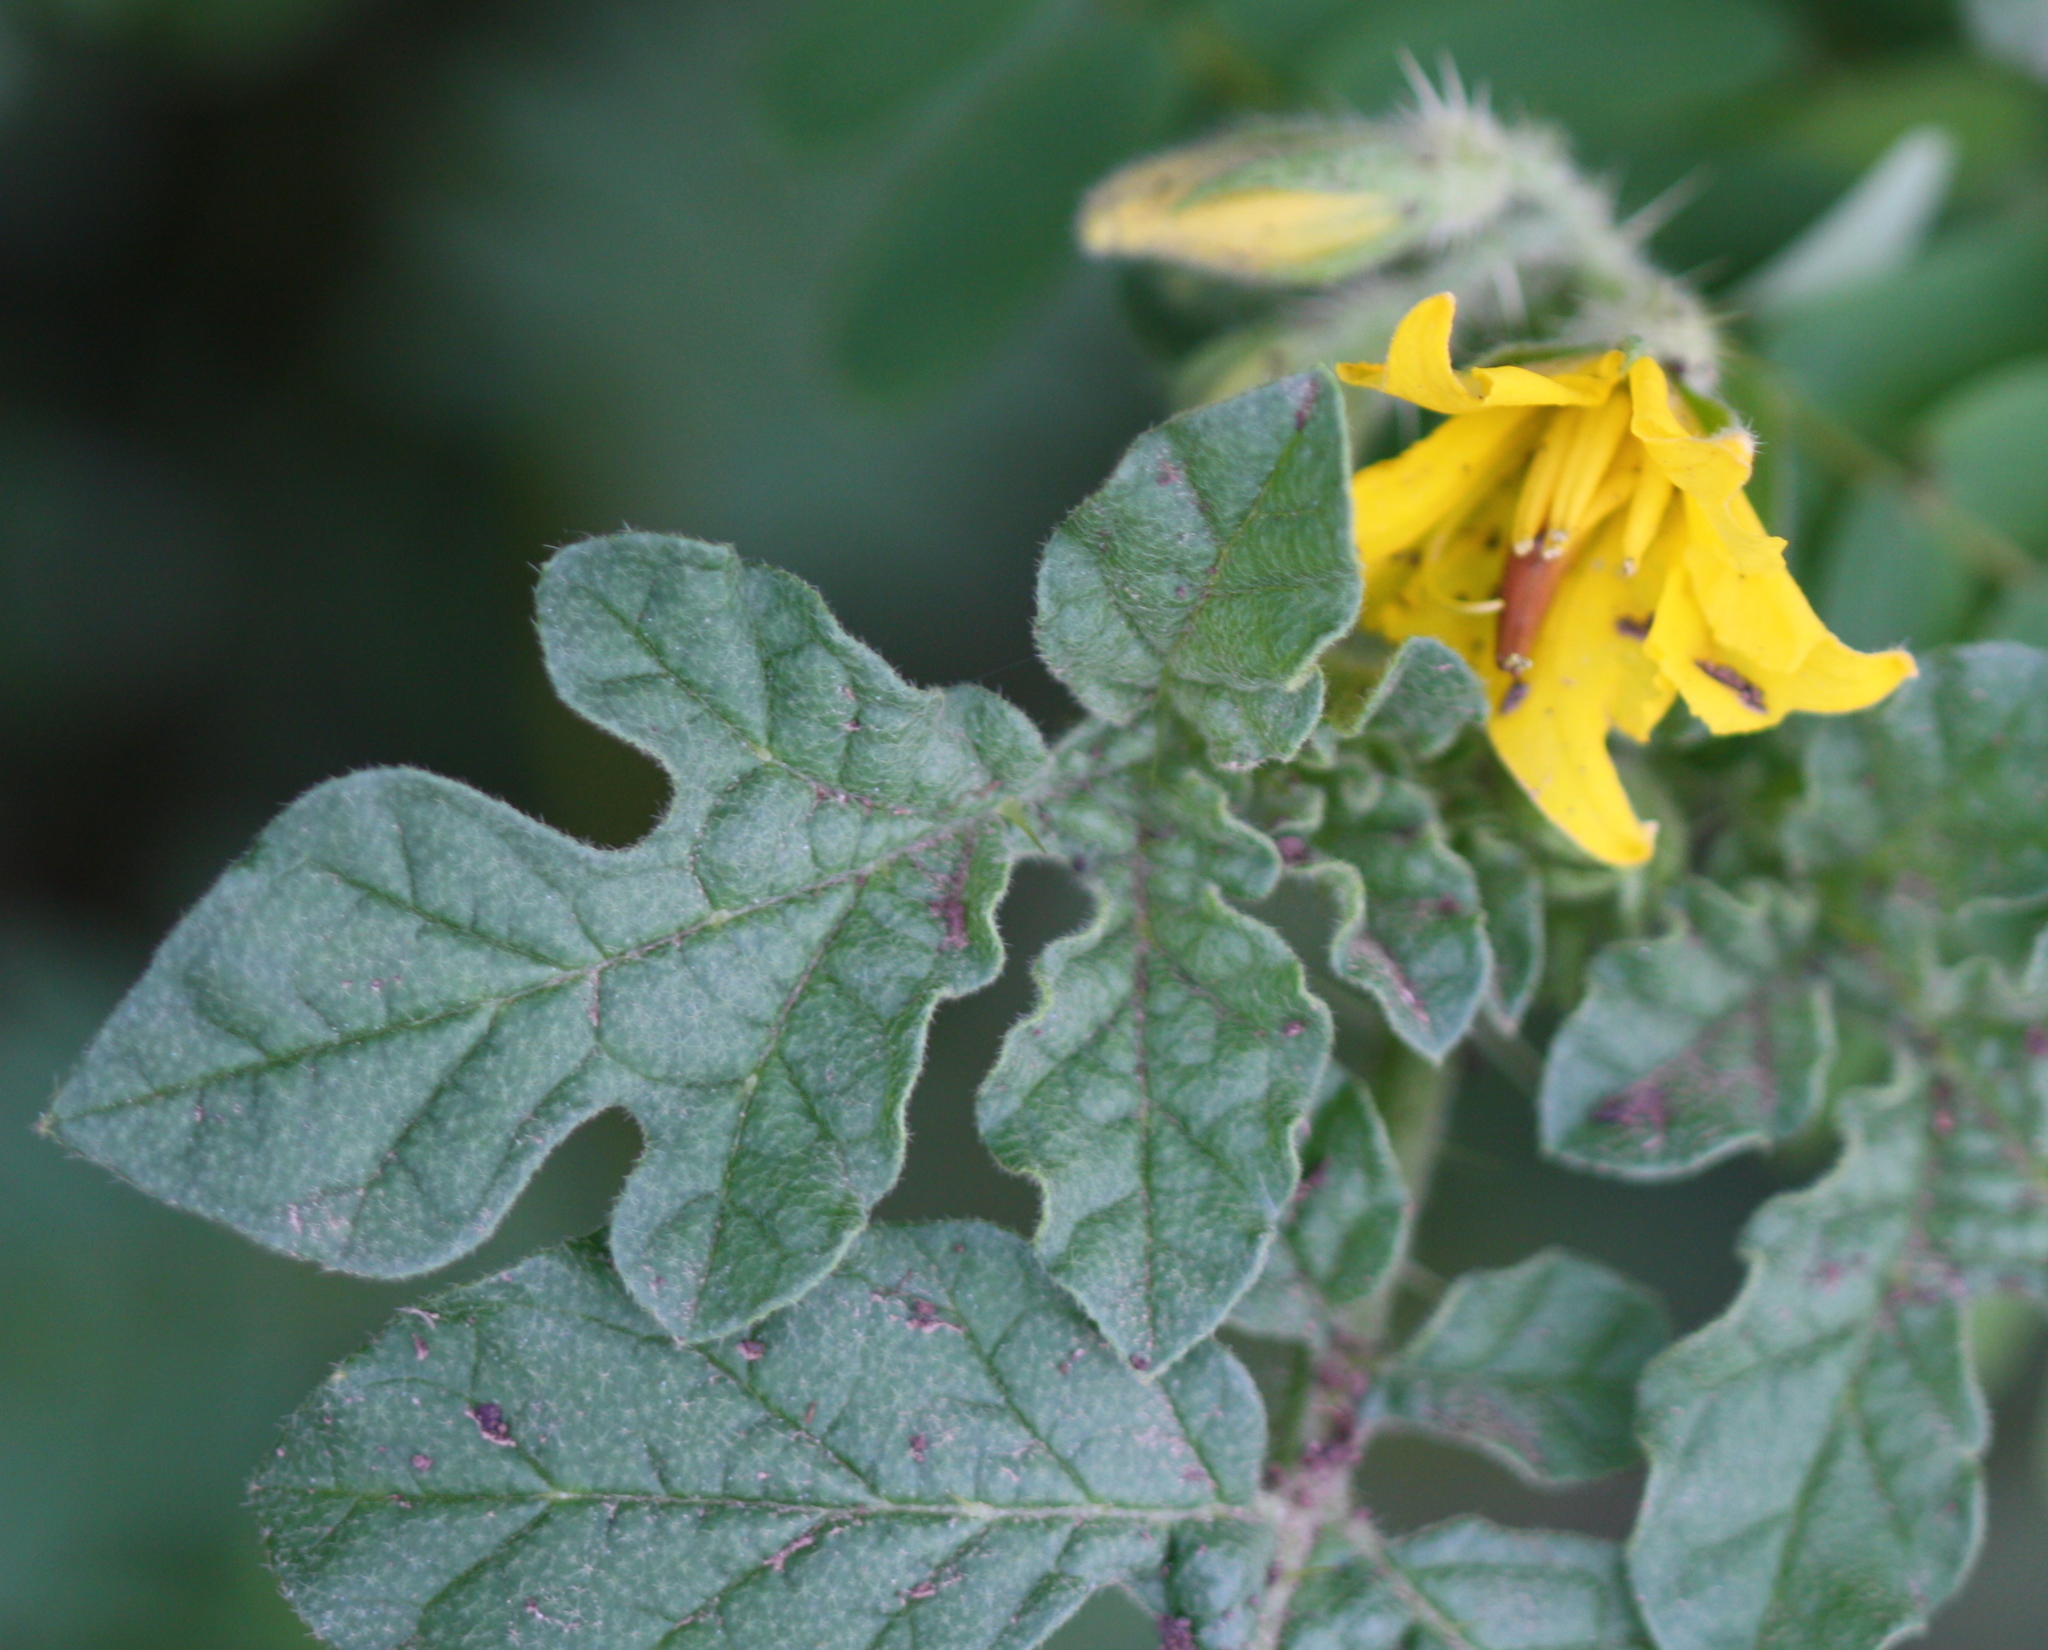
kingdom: Plantae
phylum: Tracheophyta
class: Magnoliopsida
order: Solanales
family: Solanaceae
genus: Solanum
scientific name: Solanum angustifolium
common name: Buffalobur nightshade
